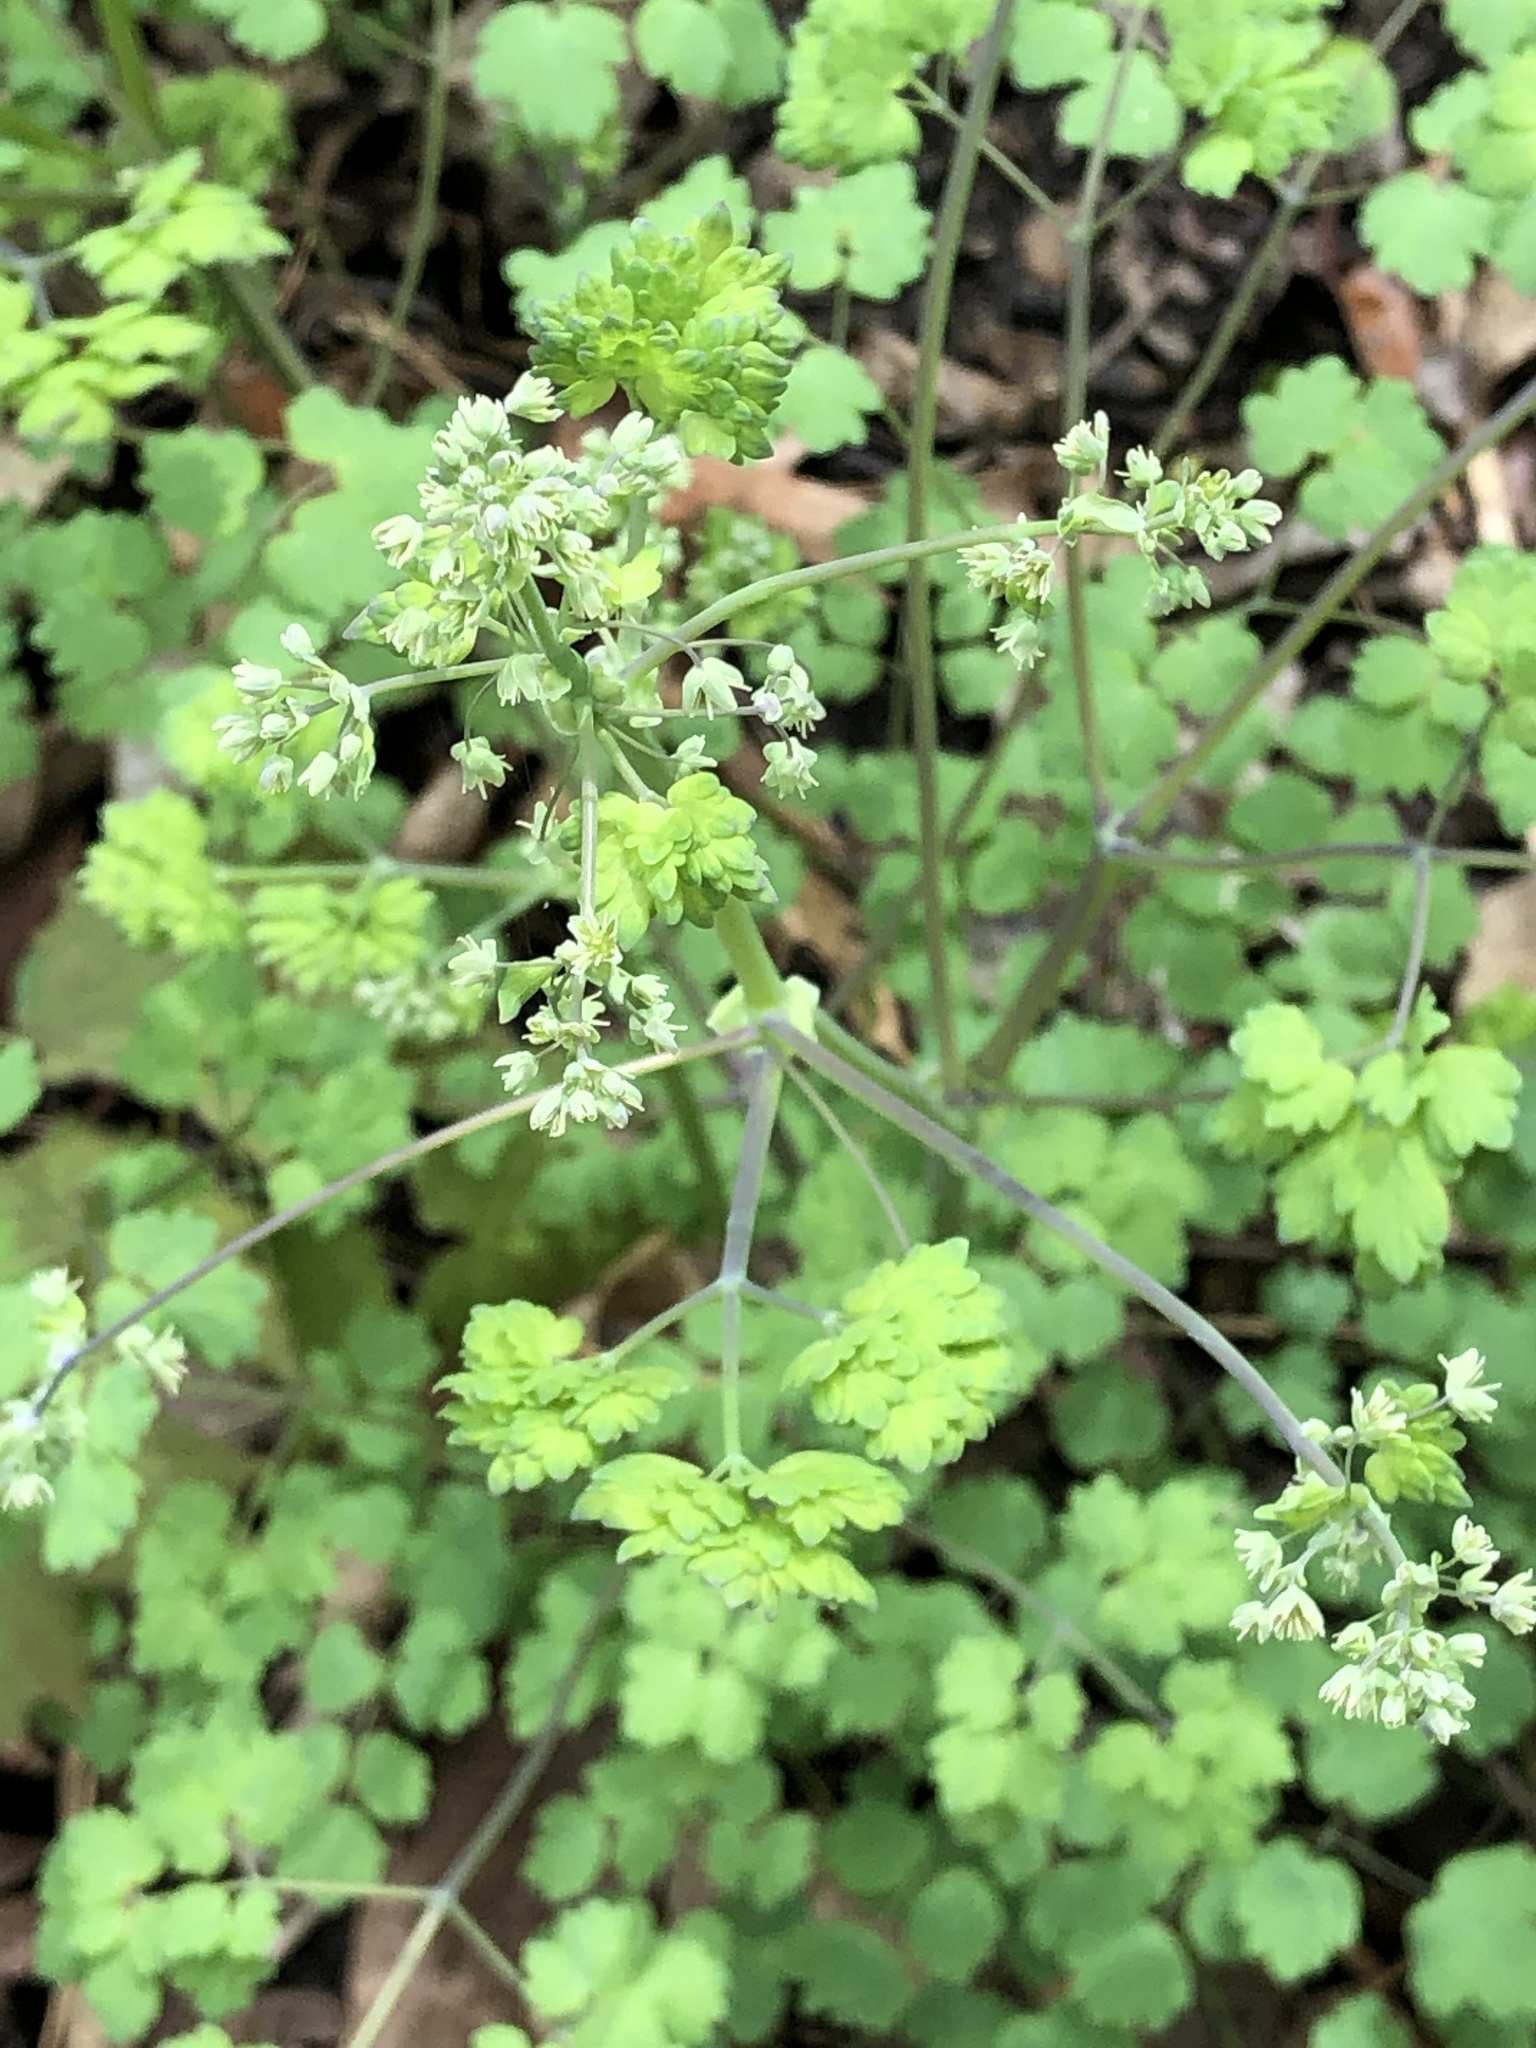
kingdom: Plantae
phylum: Tracheophyta
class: Magnoliopsida
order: Ranunculales
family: Ranunculaceae
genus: Thalictrum
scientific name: Thalictrum dioicum
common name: Early meadow-rue
